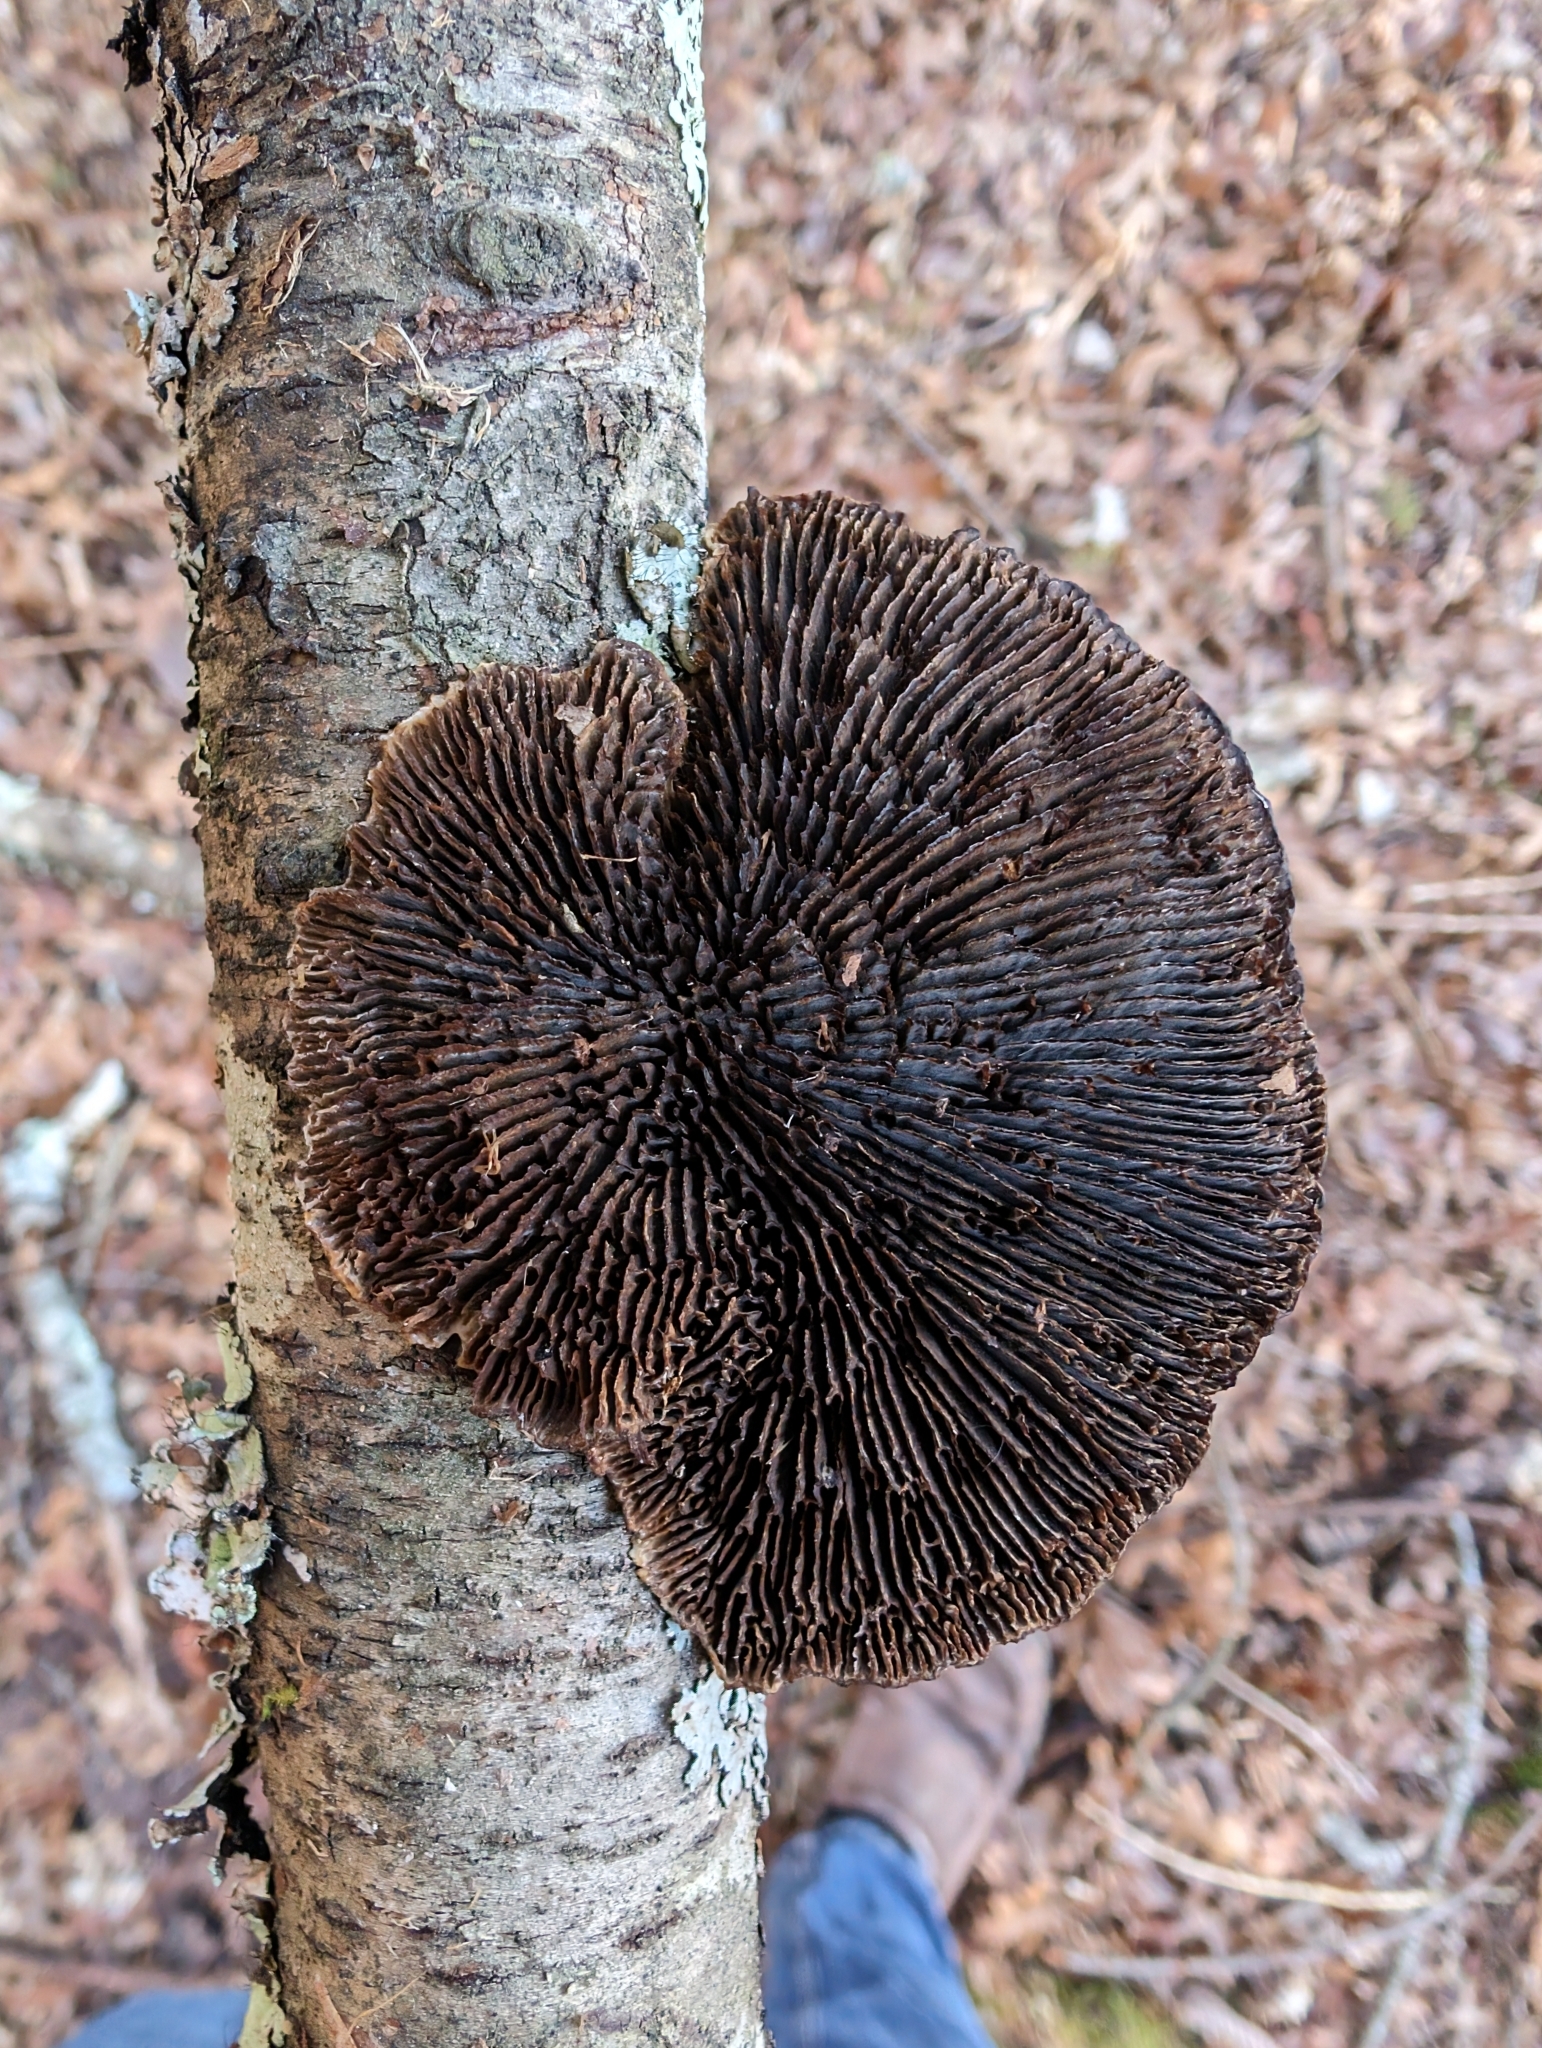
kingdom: Fungi
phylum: Basidiomycota
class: Agaricomycetes
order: Polyporales
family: Polyporaceae
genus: Daedaleopsis
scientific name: Daedaleopsis confragosa
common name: Blushing bracket
